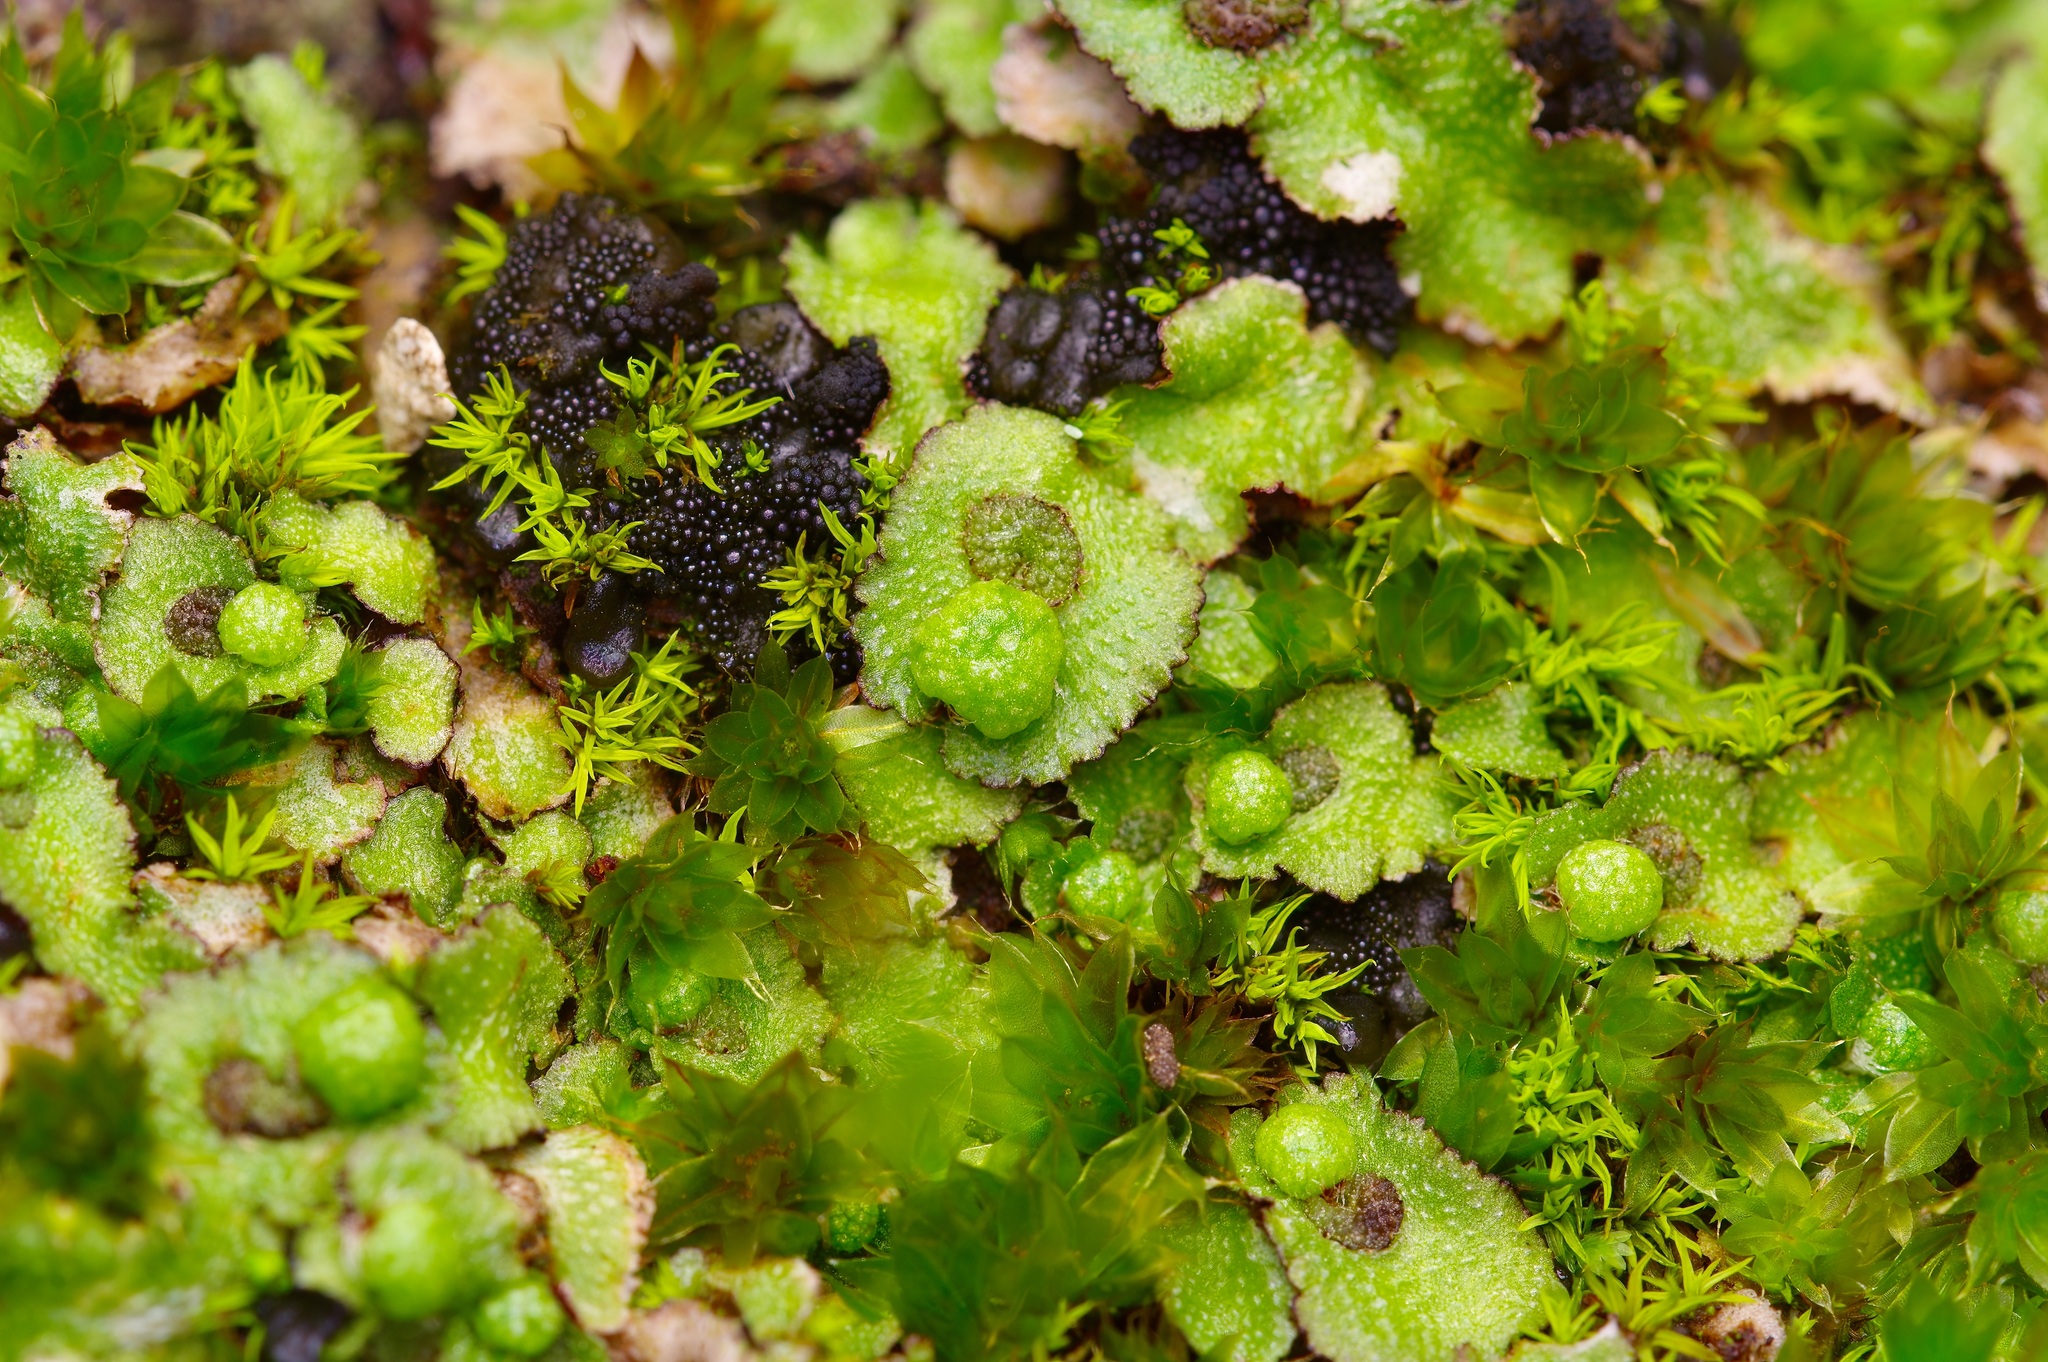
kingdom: Plantae
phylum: Marchantiophyta
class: Marchantiopsida
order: Marchantiales
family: Aytoniaceae
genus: Reboulia
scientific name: Reboulia hemisphaerica
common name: Purple-margined liverwort
